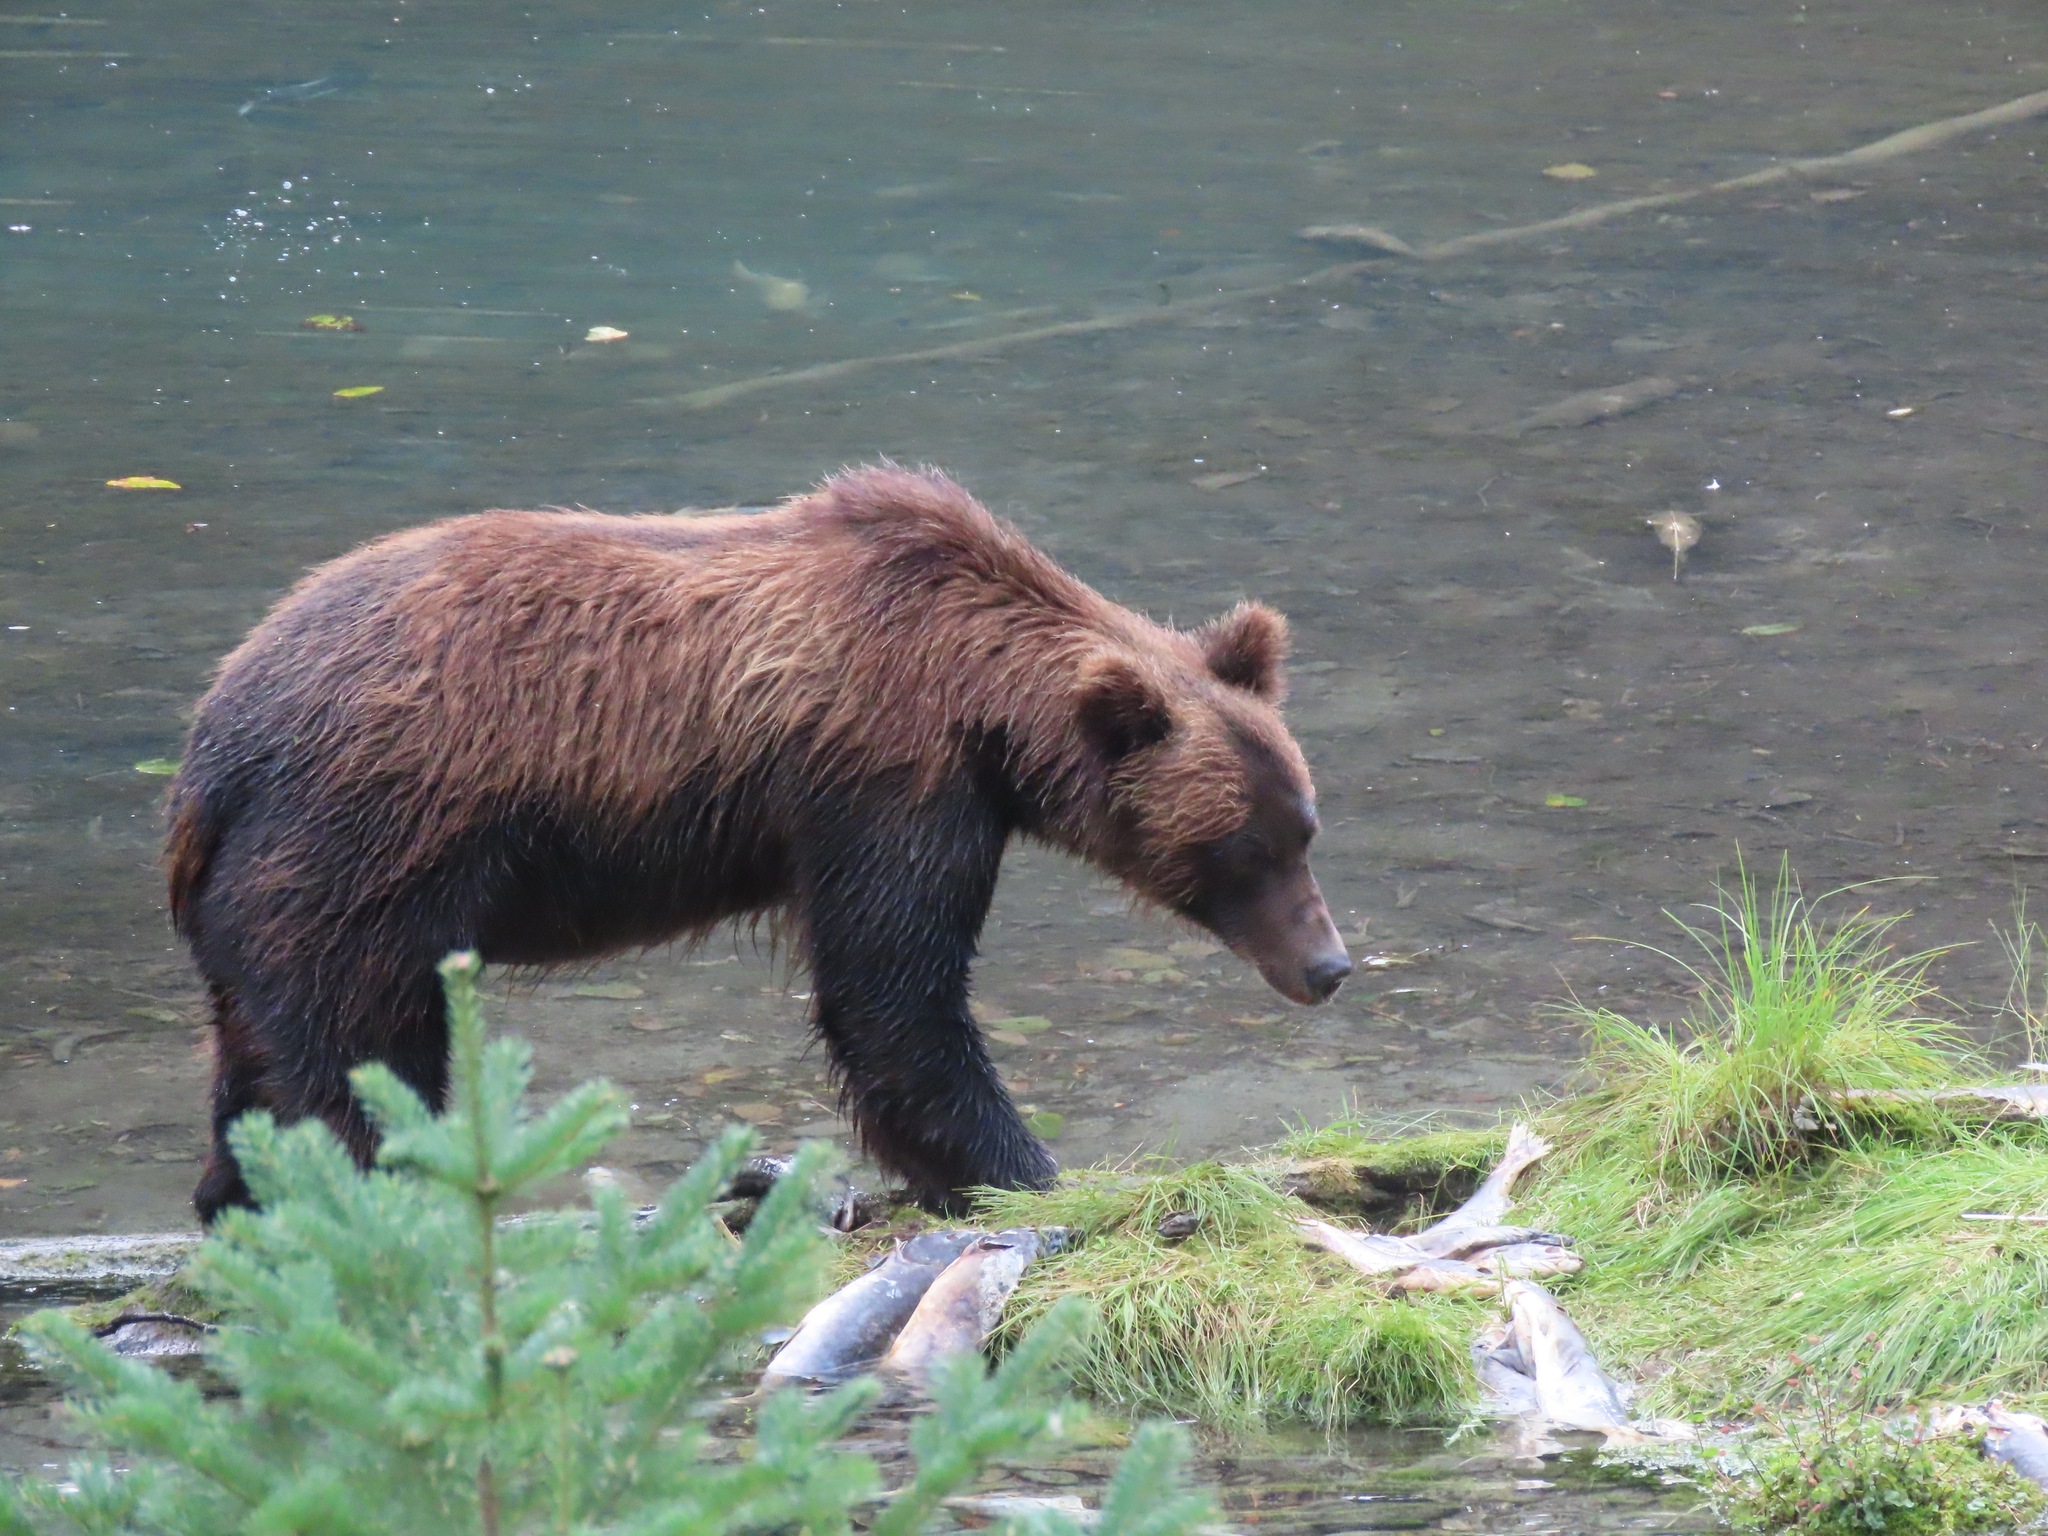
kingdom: Animalia
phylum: Chordata
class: Mammalia
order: Carnivora
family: Ursidae
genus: Ursus
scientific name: Ursus arctos
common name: Brown bear
